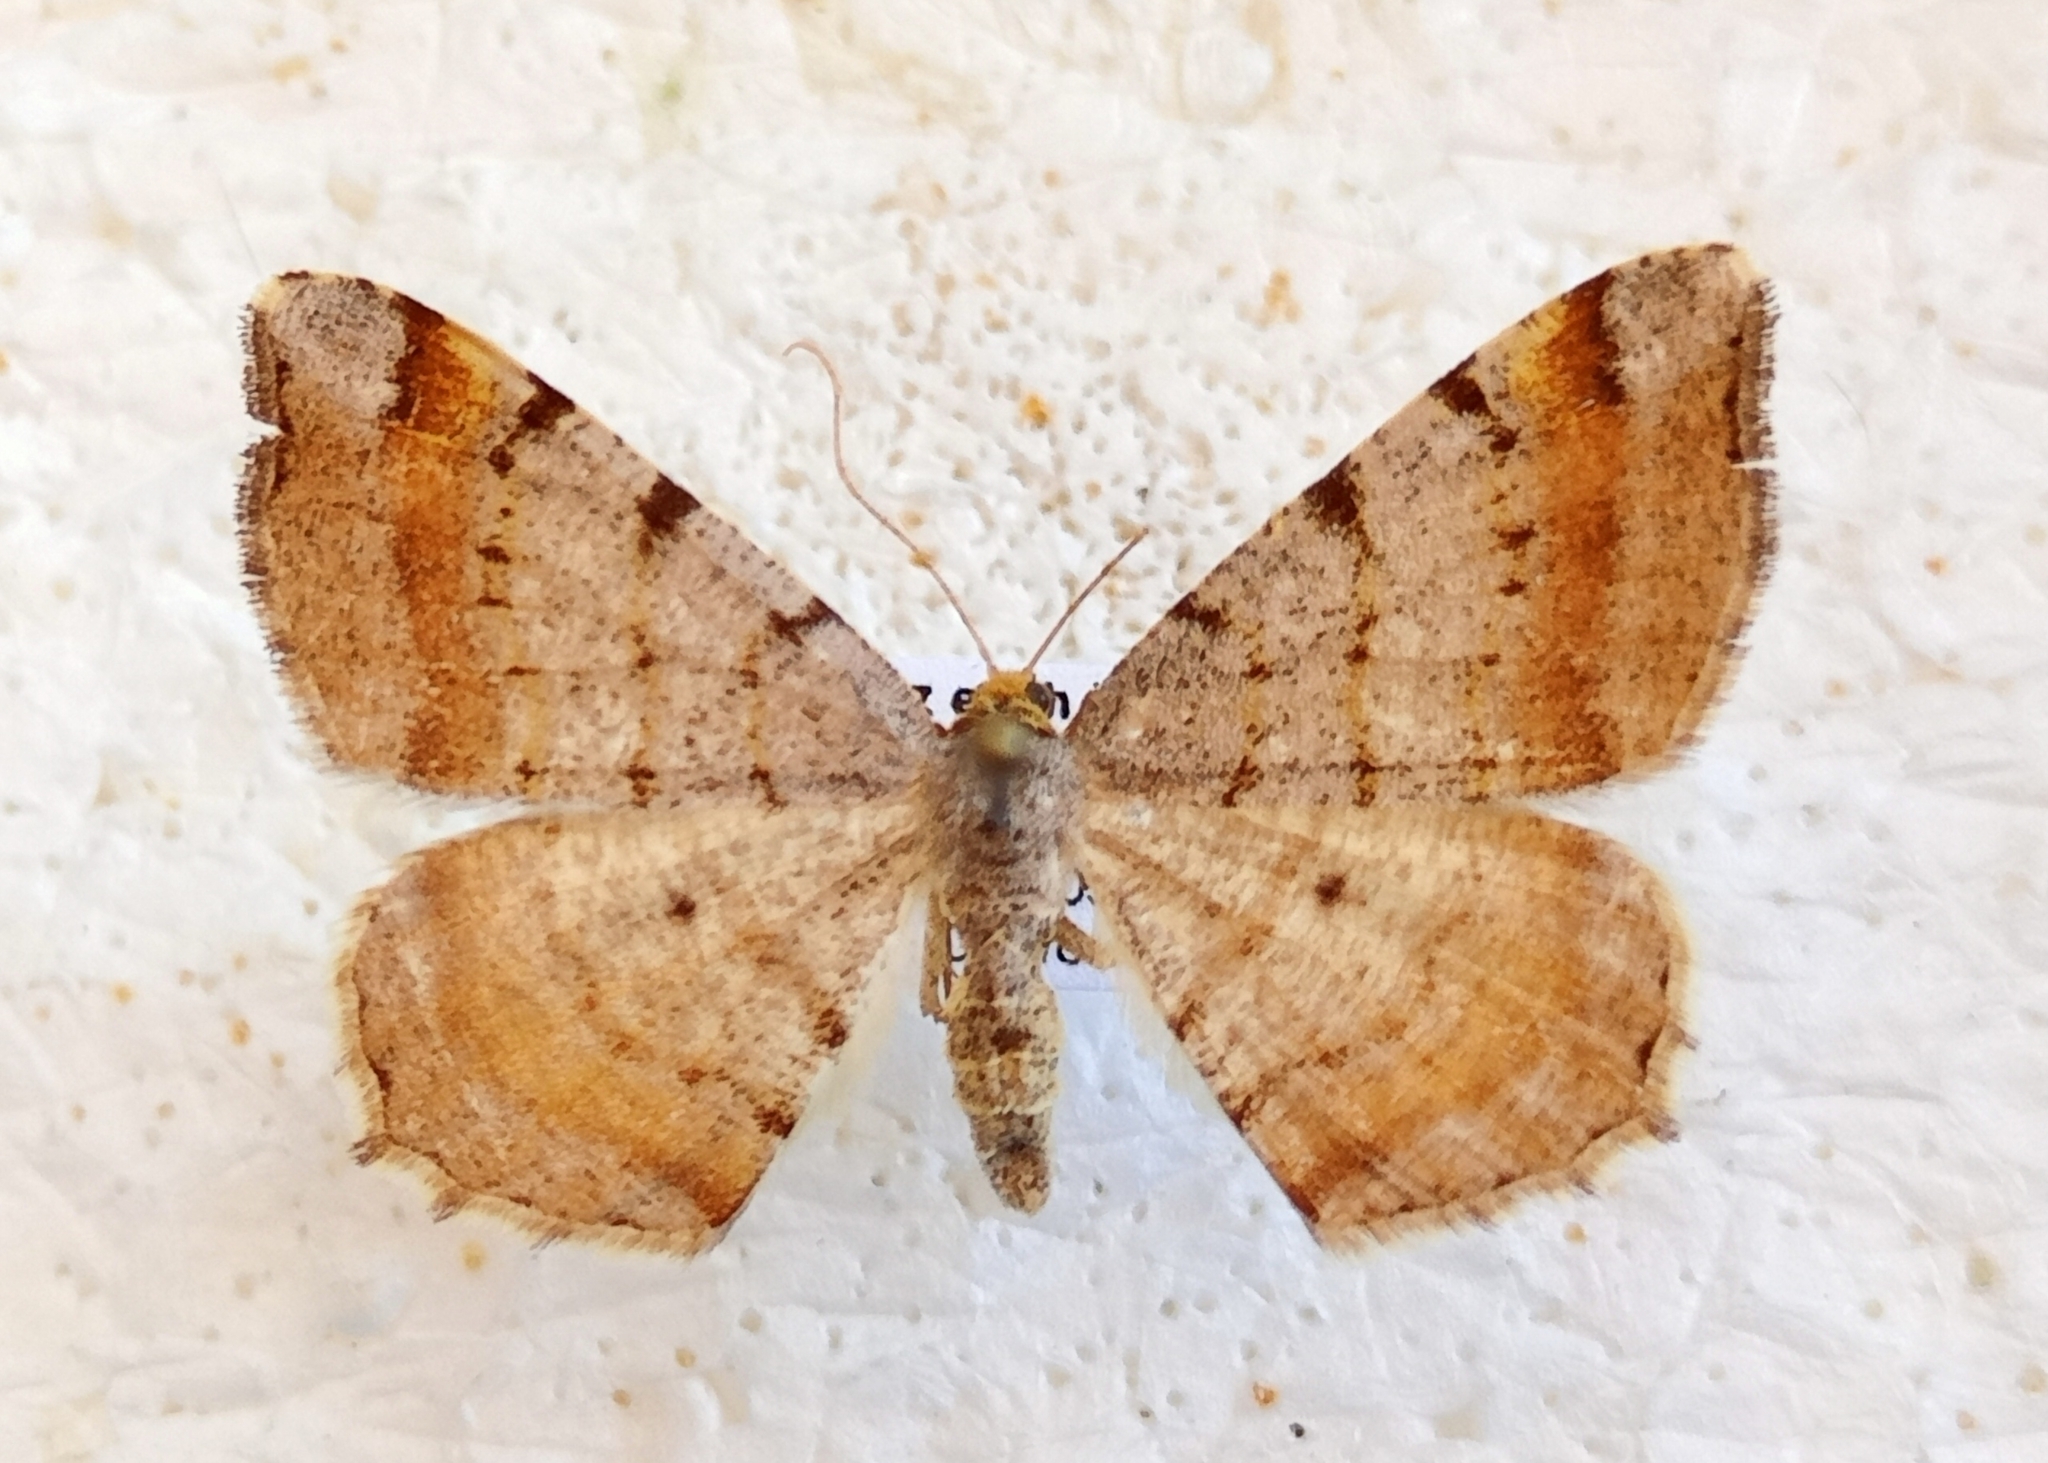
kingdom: Animalia
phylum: Arthropoda
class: Insecta
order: Lepidoptera
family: Geometridae
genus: Macaria
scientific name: Macaria liturata
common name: Tawny-barred angle
